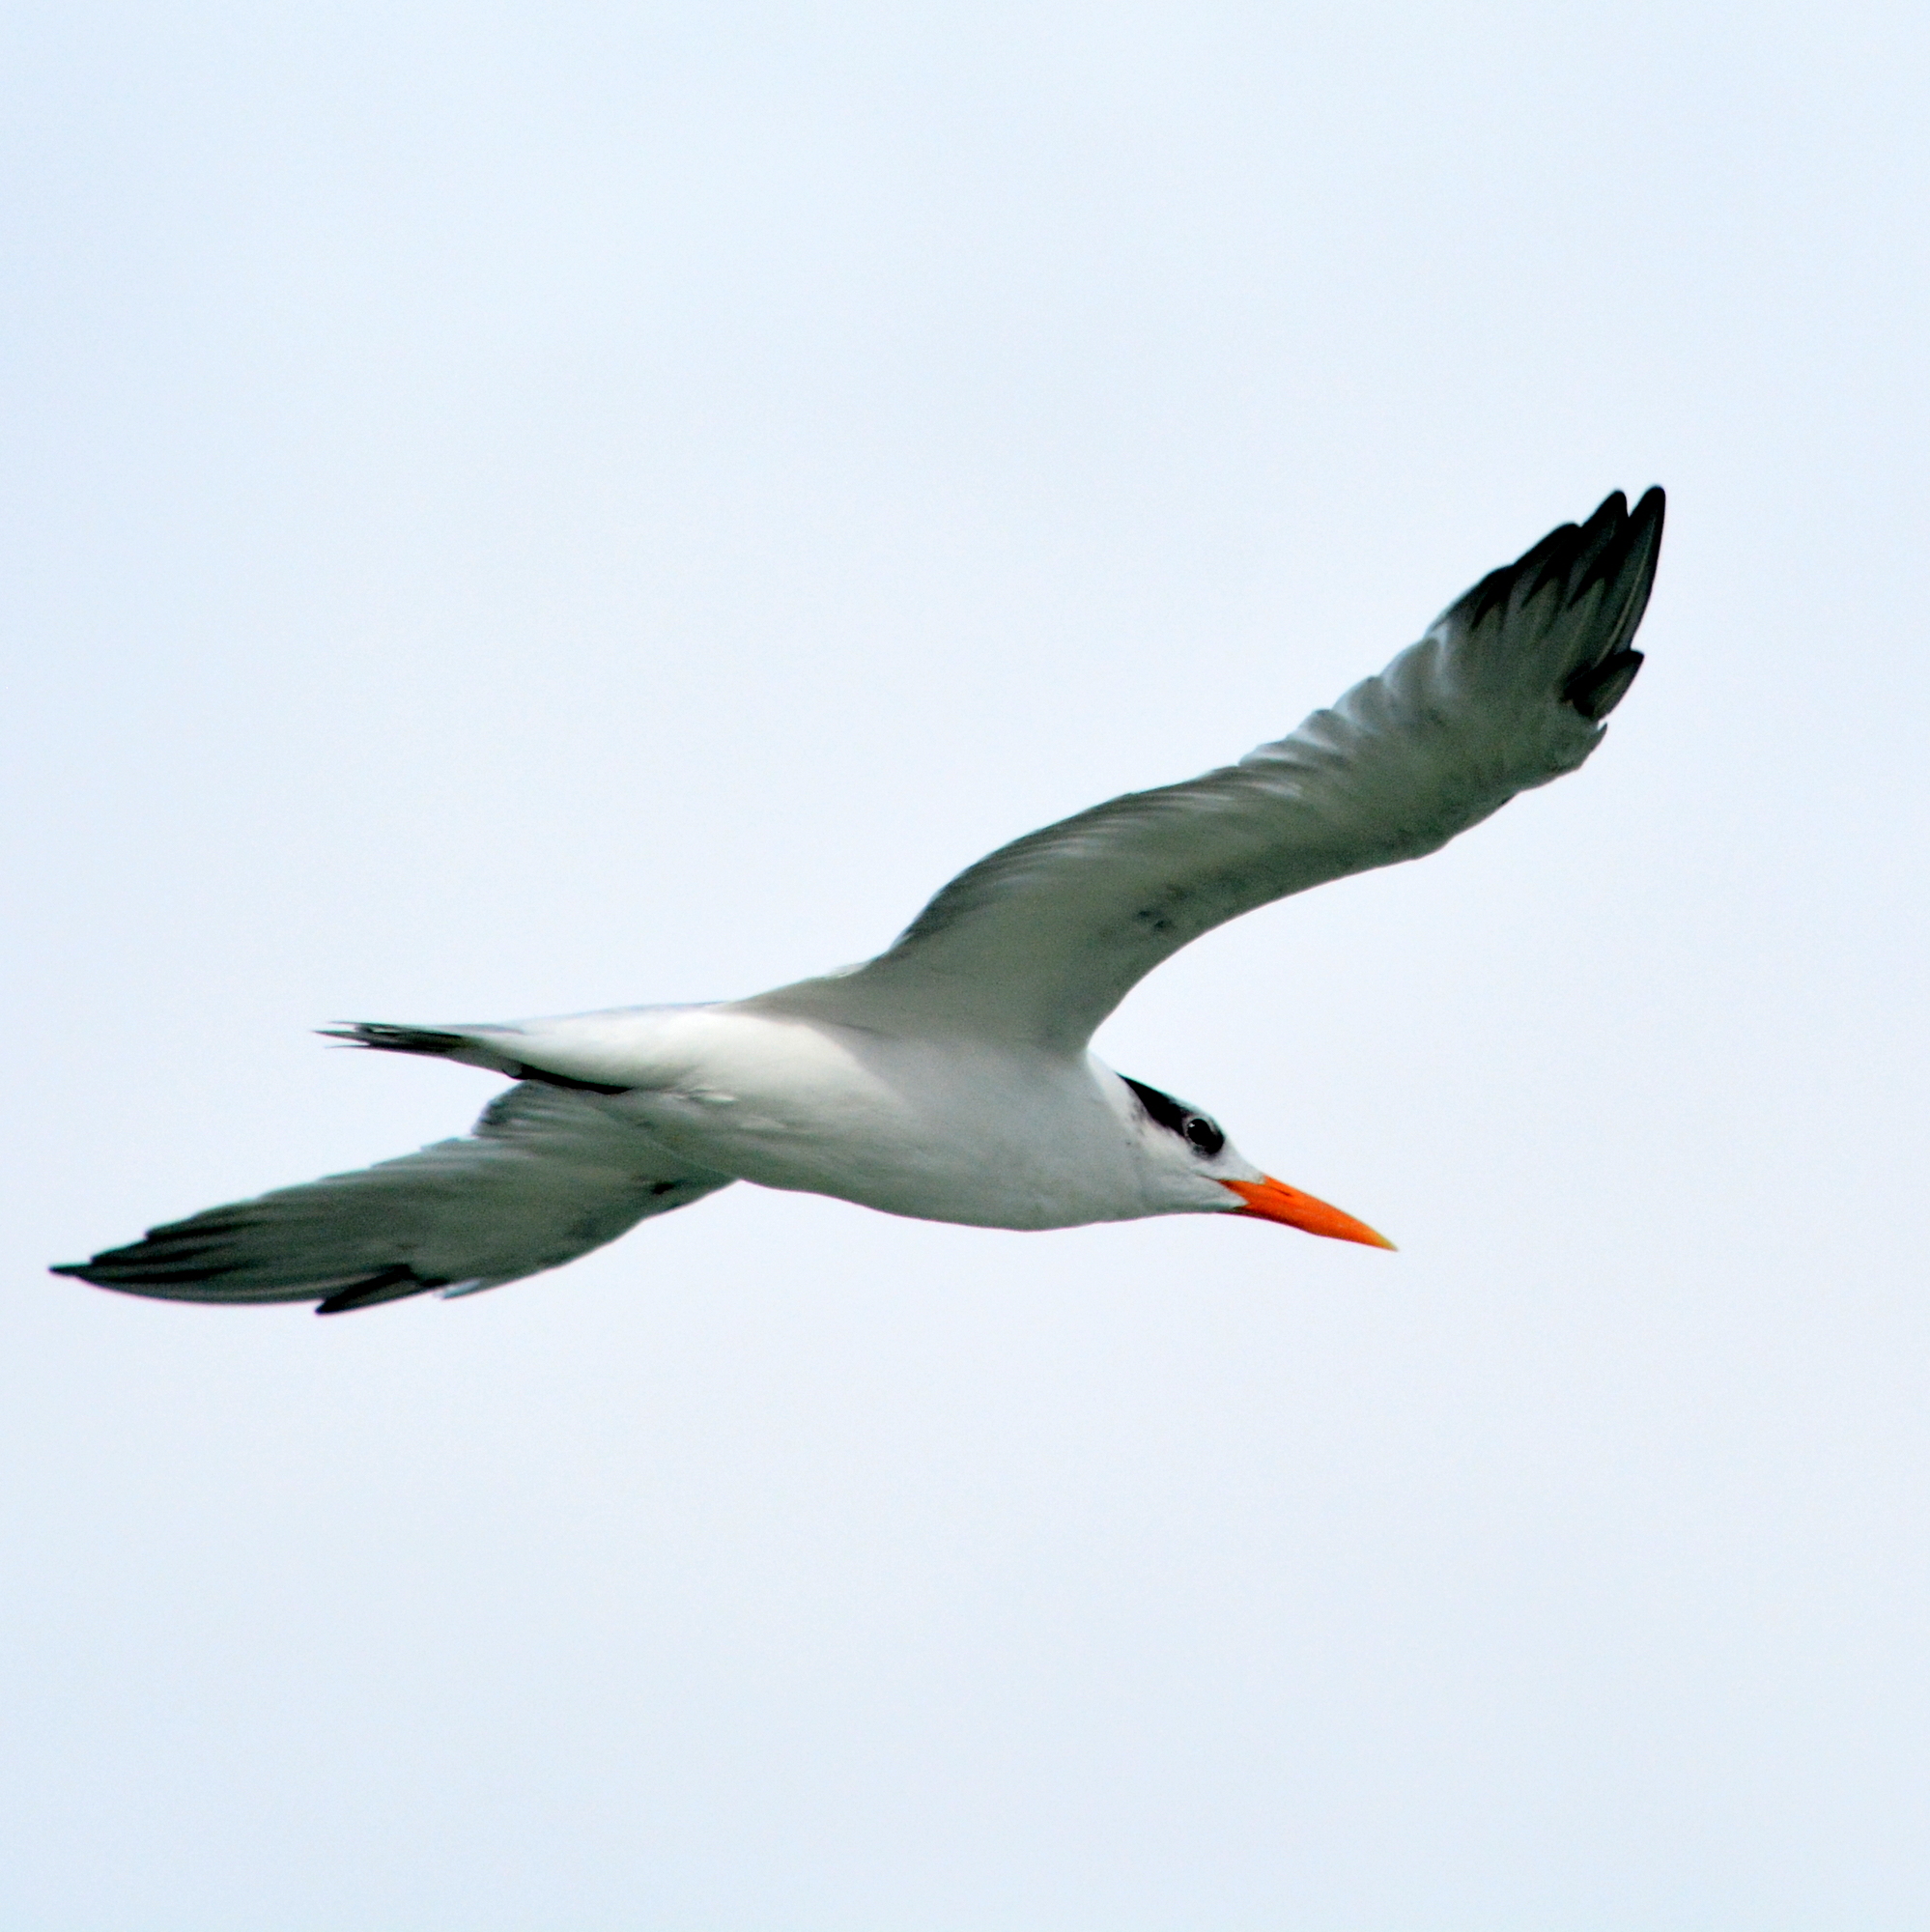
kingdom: Animalia
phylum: Chordata
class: Aves
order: Charadriiformes
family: Laridae
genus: Thalasseus
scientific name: Thalasseus maximus
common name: Royal tern
